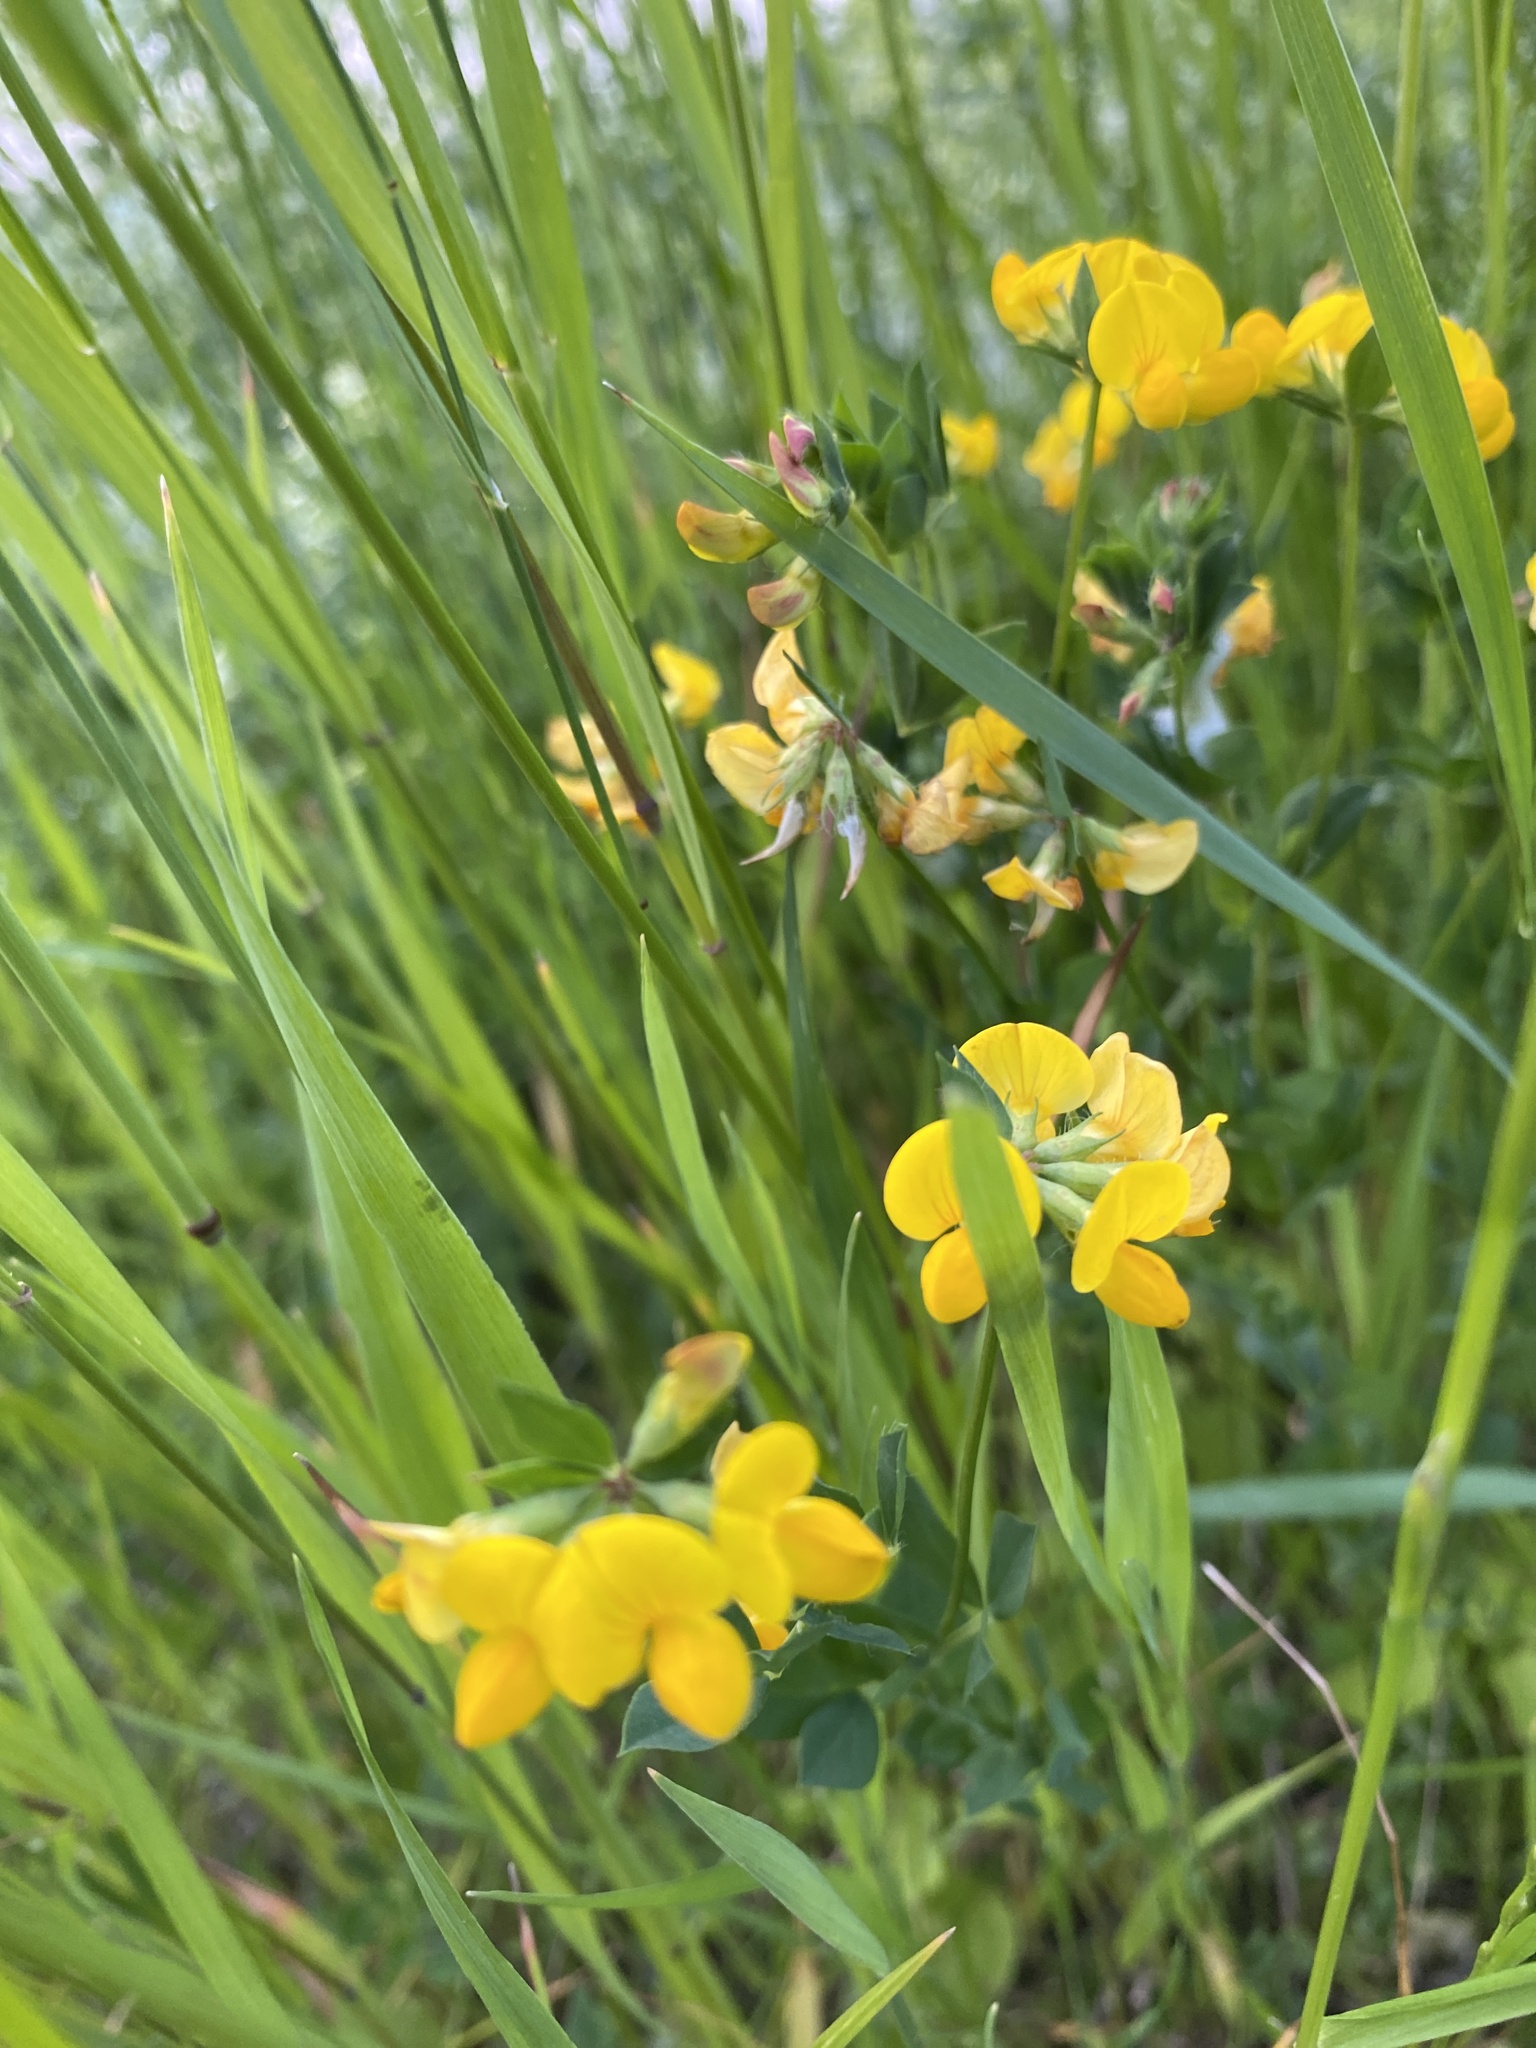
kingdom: Plantae
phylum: Tracheophyta
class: Magnoliopsida
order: Fabales
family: Fabaceae
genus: Lotus
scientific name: Lotus corniculatus
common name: Common bird's-foot-trefoil
